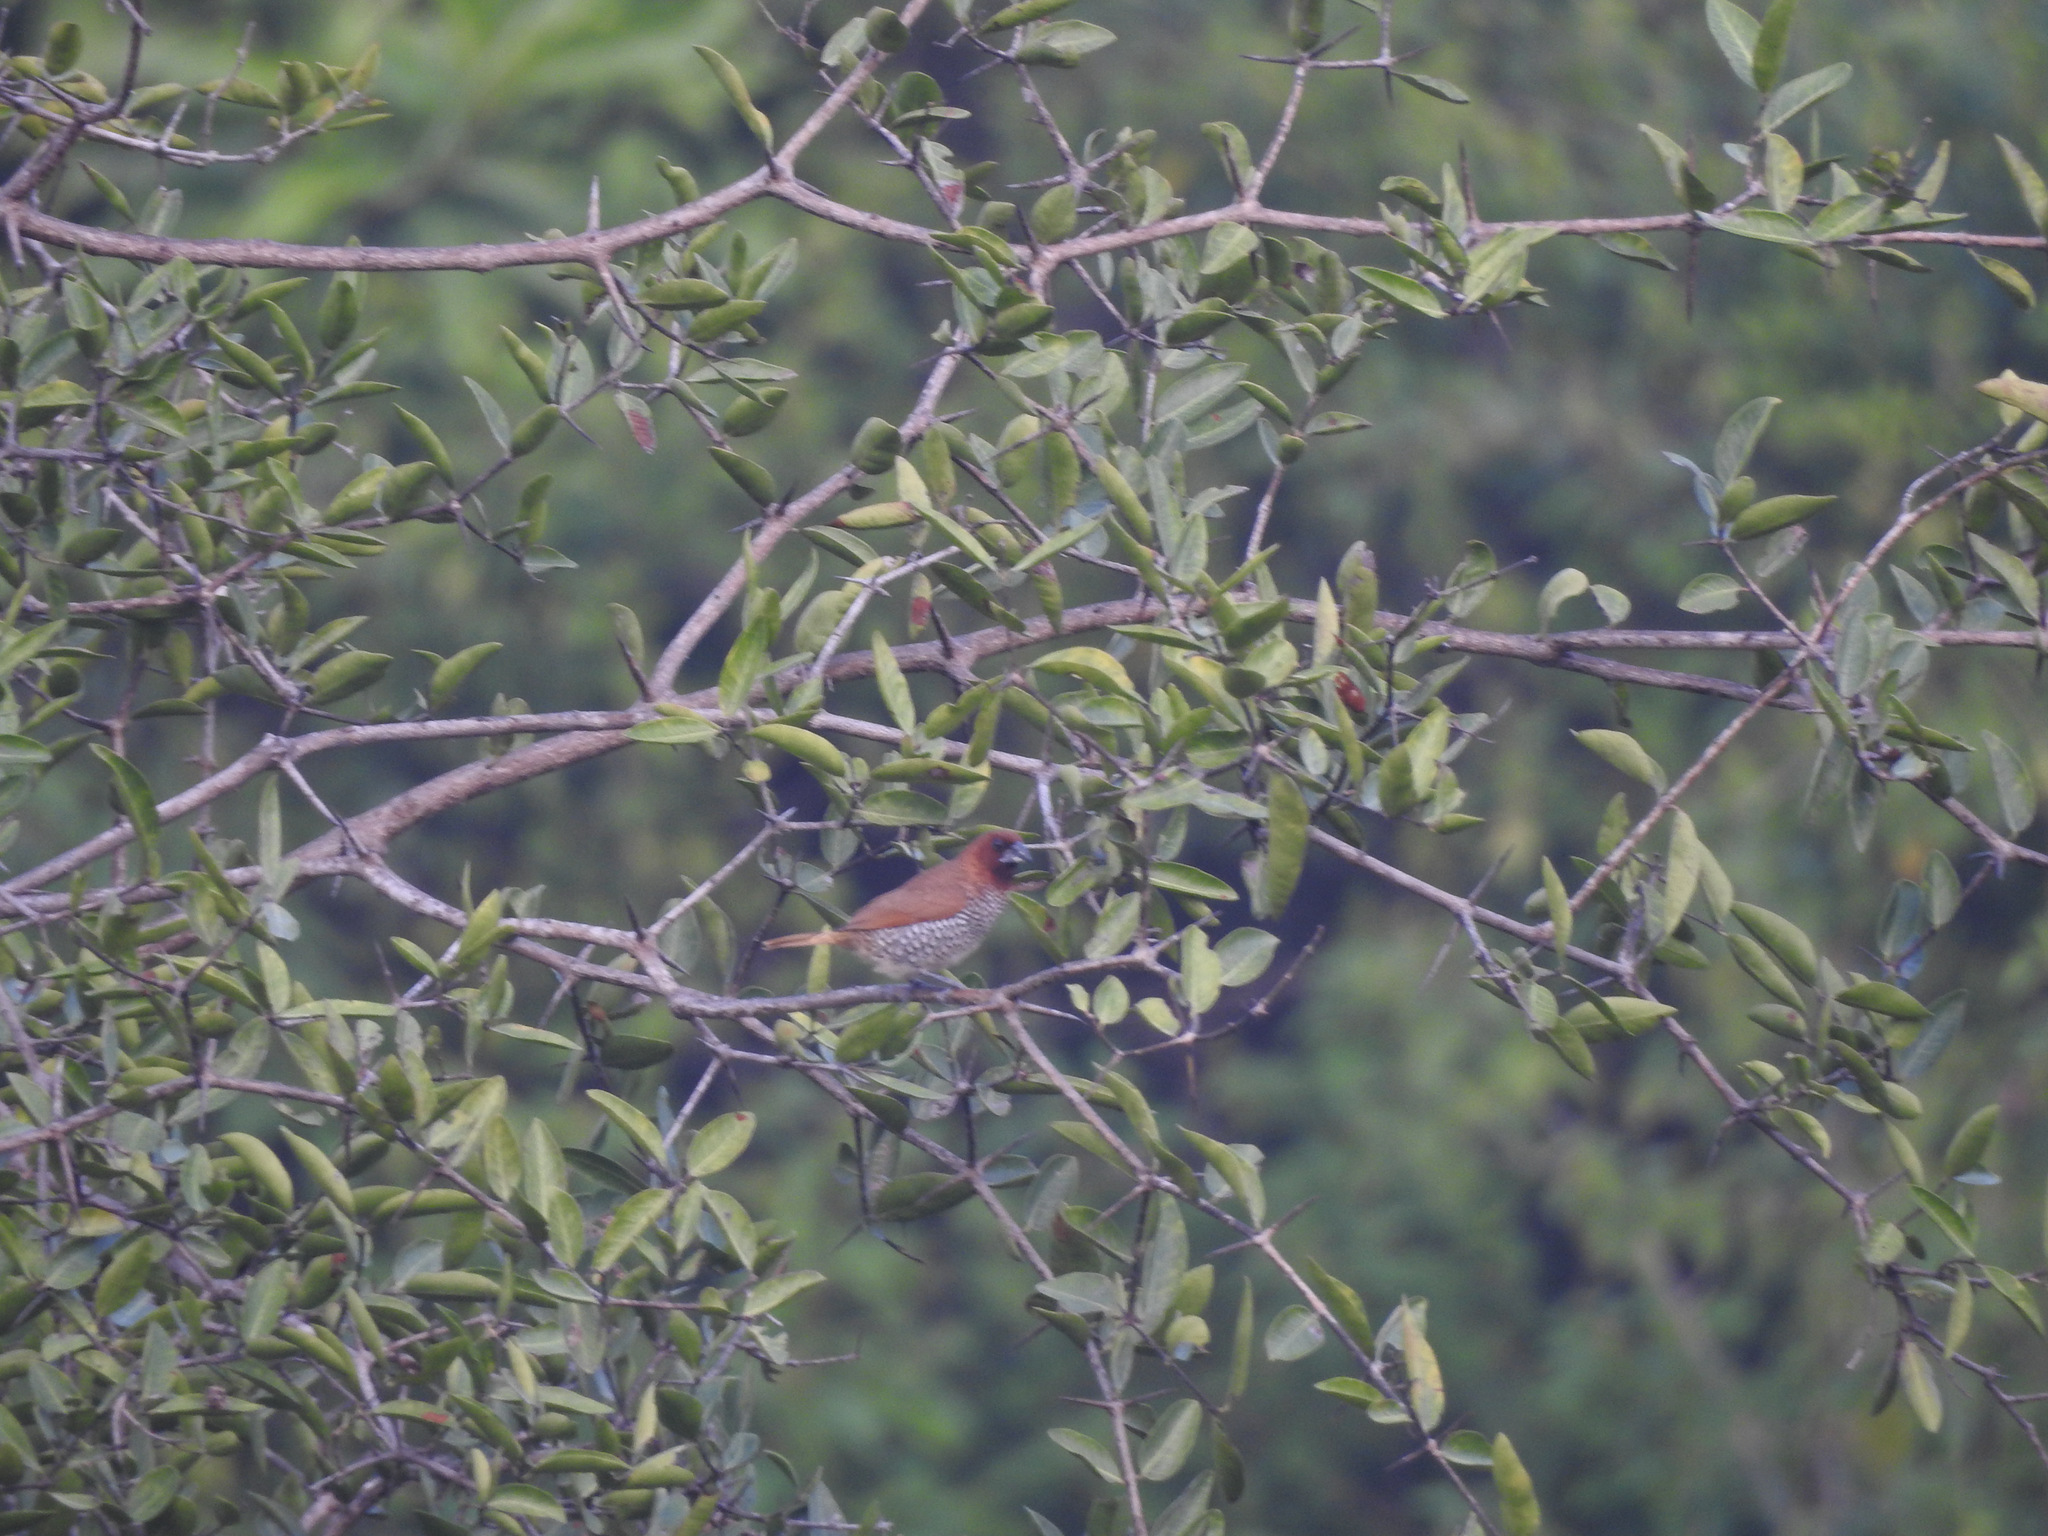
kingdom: Animalia
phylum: Chordata
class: Aves
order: Passeriformes
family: Estrildidae
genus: Lonchura
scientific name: Lonchura punctulata
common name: Scaly-breasted munia
